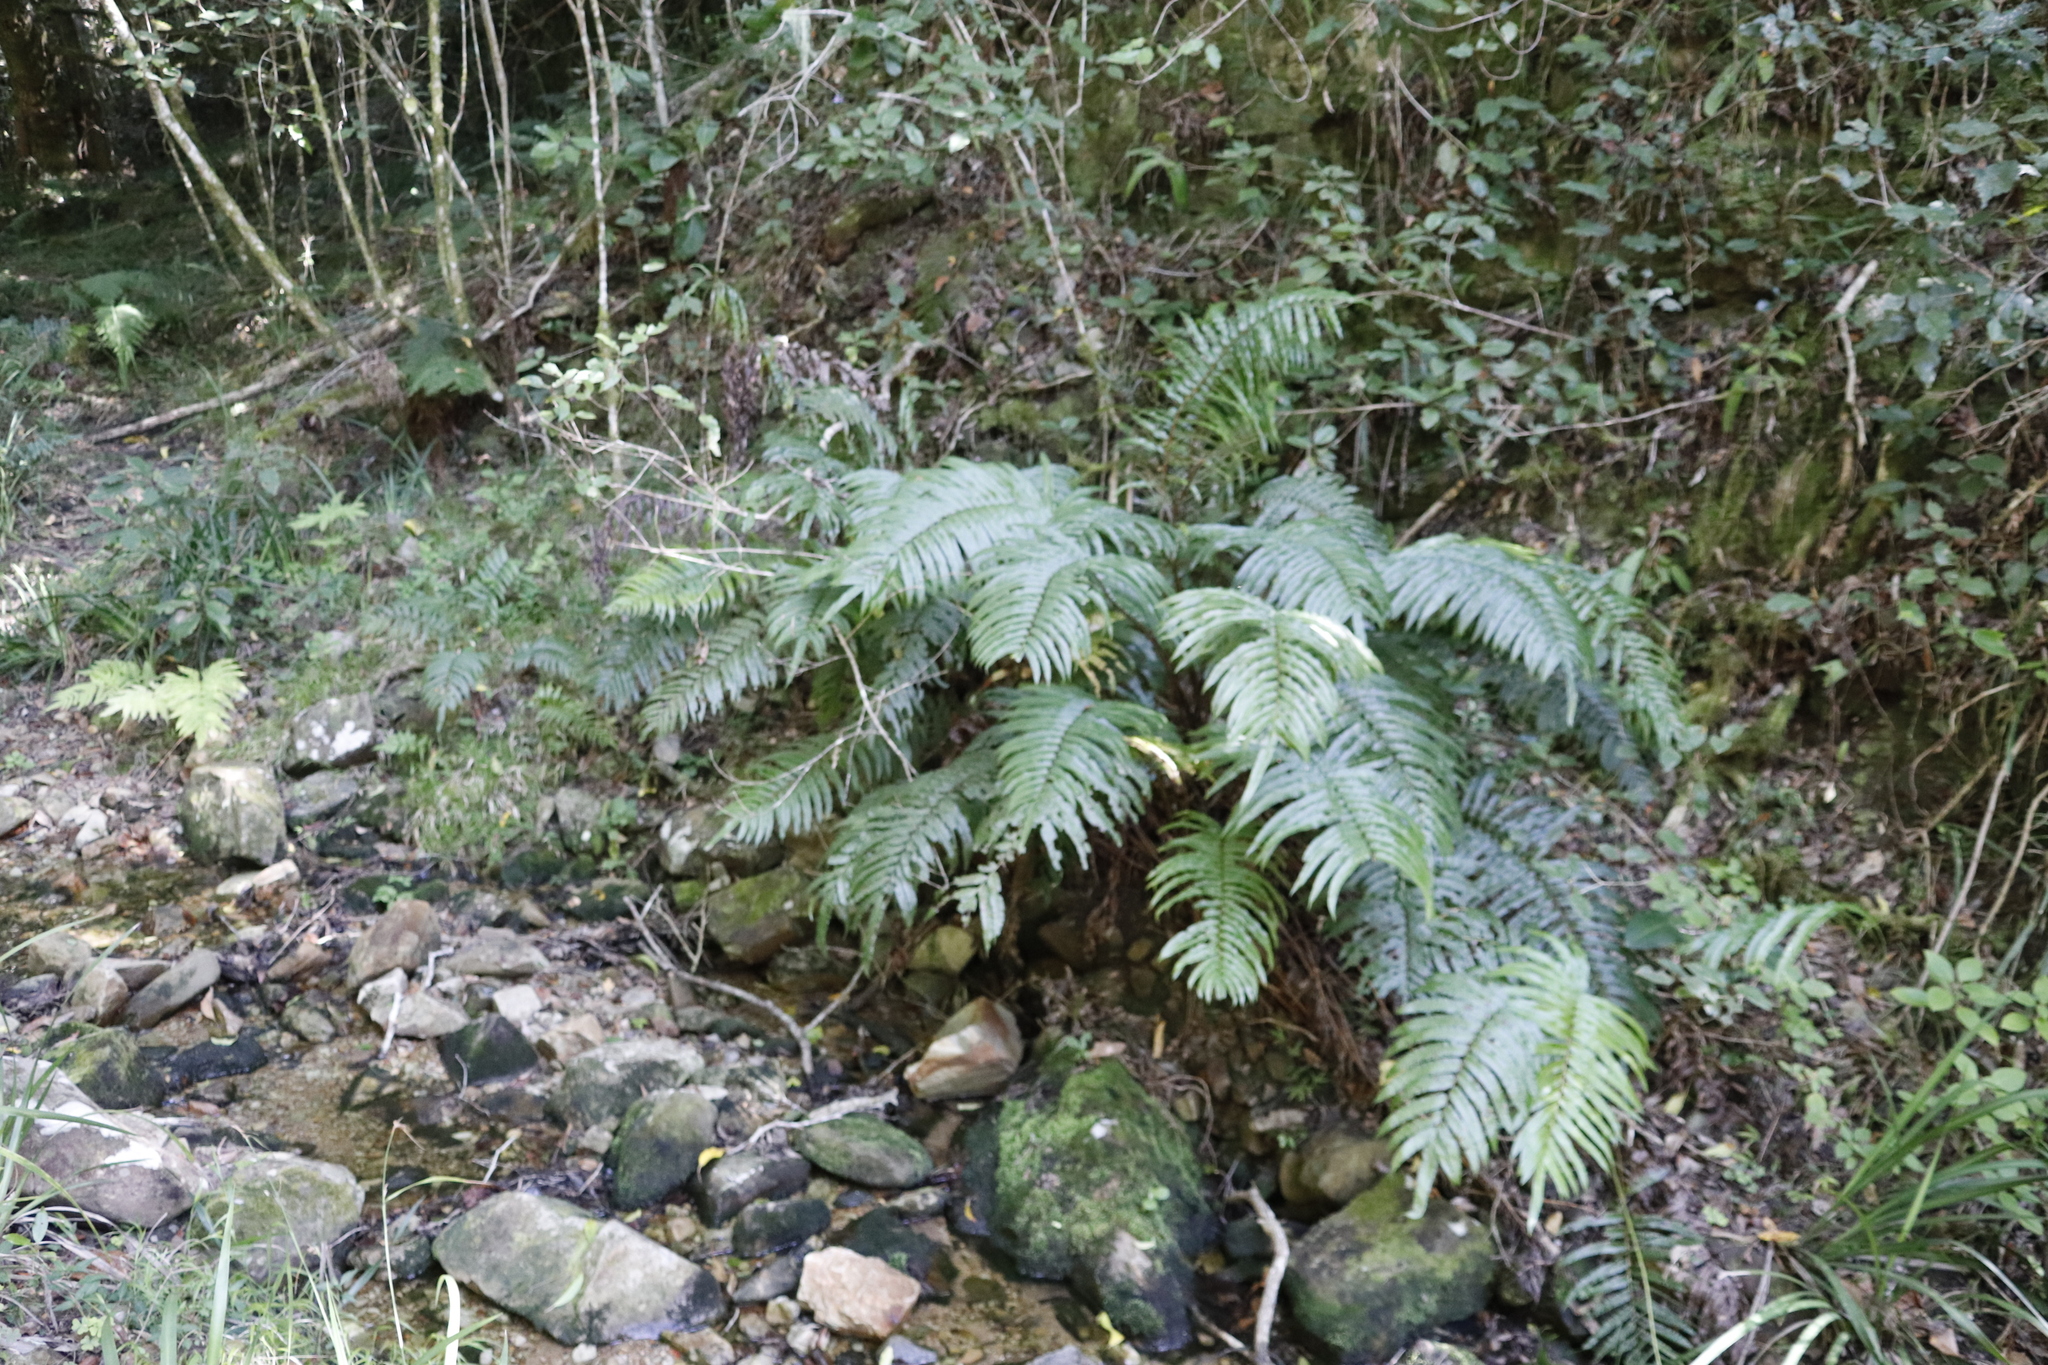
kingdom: Plantae
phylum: Tracheophyta
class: Polypodiopsida
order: Polypodiales
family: Blechnaceae
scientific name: Blechnaceae
